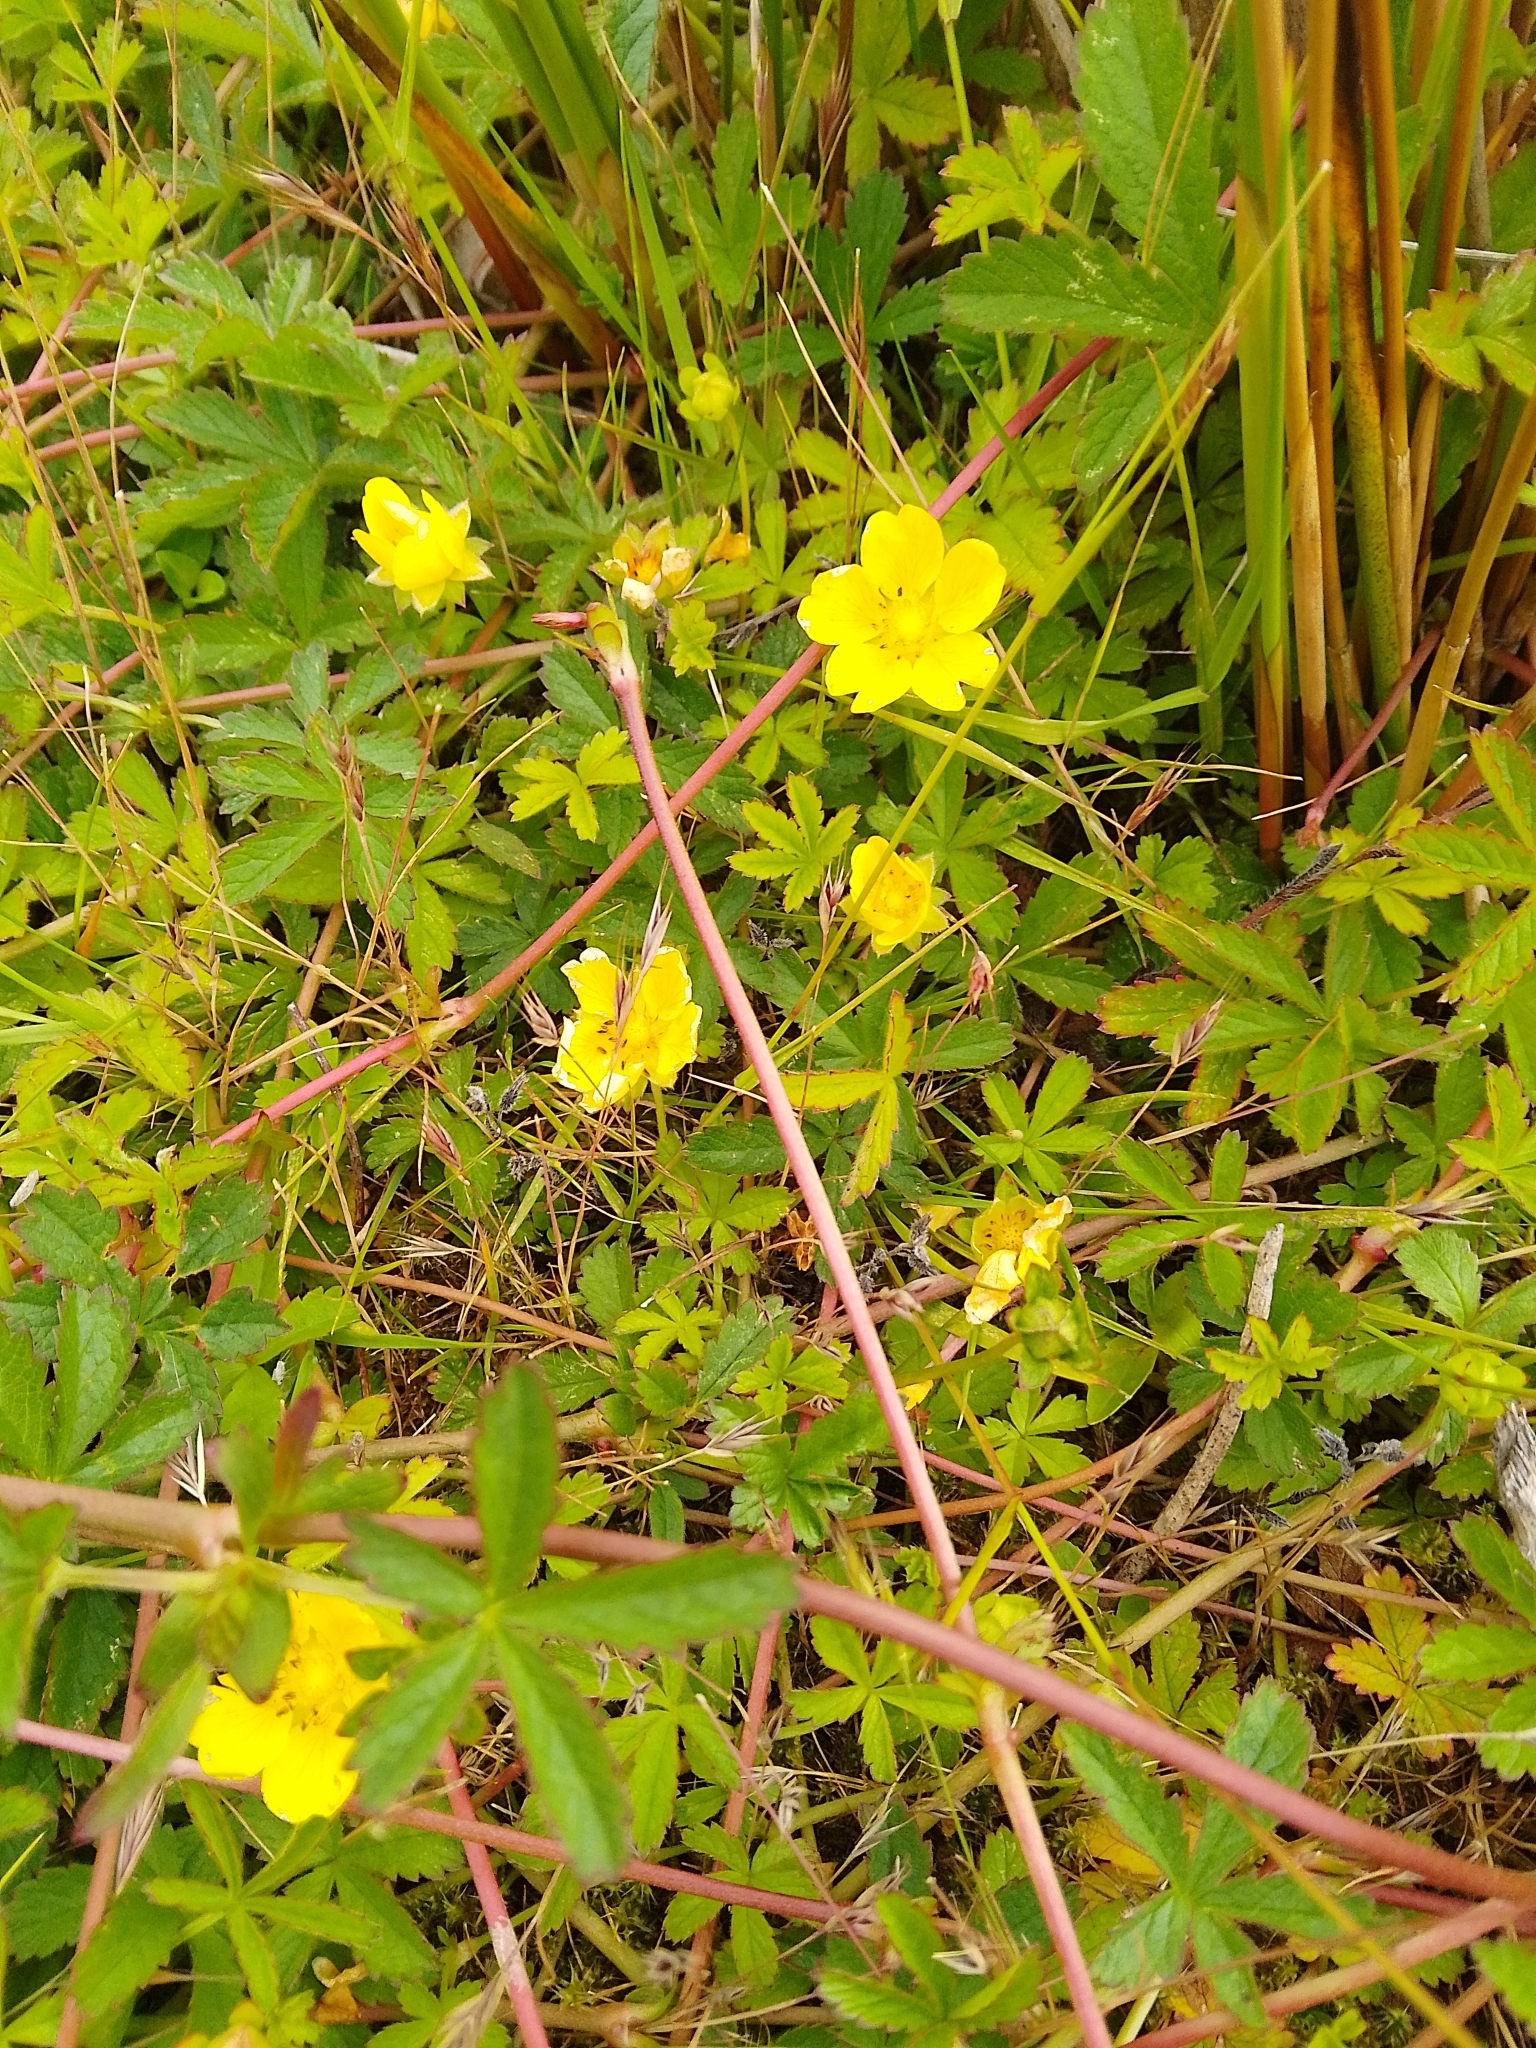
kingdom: Plantae
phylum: Tracheophyta
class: Magnoliopsida
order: Rosales
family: Rosaceae
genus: Potentilla
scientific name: Potentilla reptans
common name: Creeping cinquefoil
